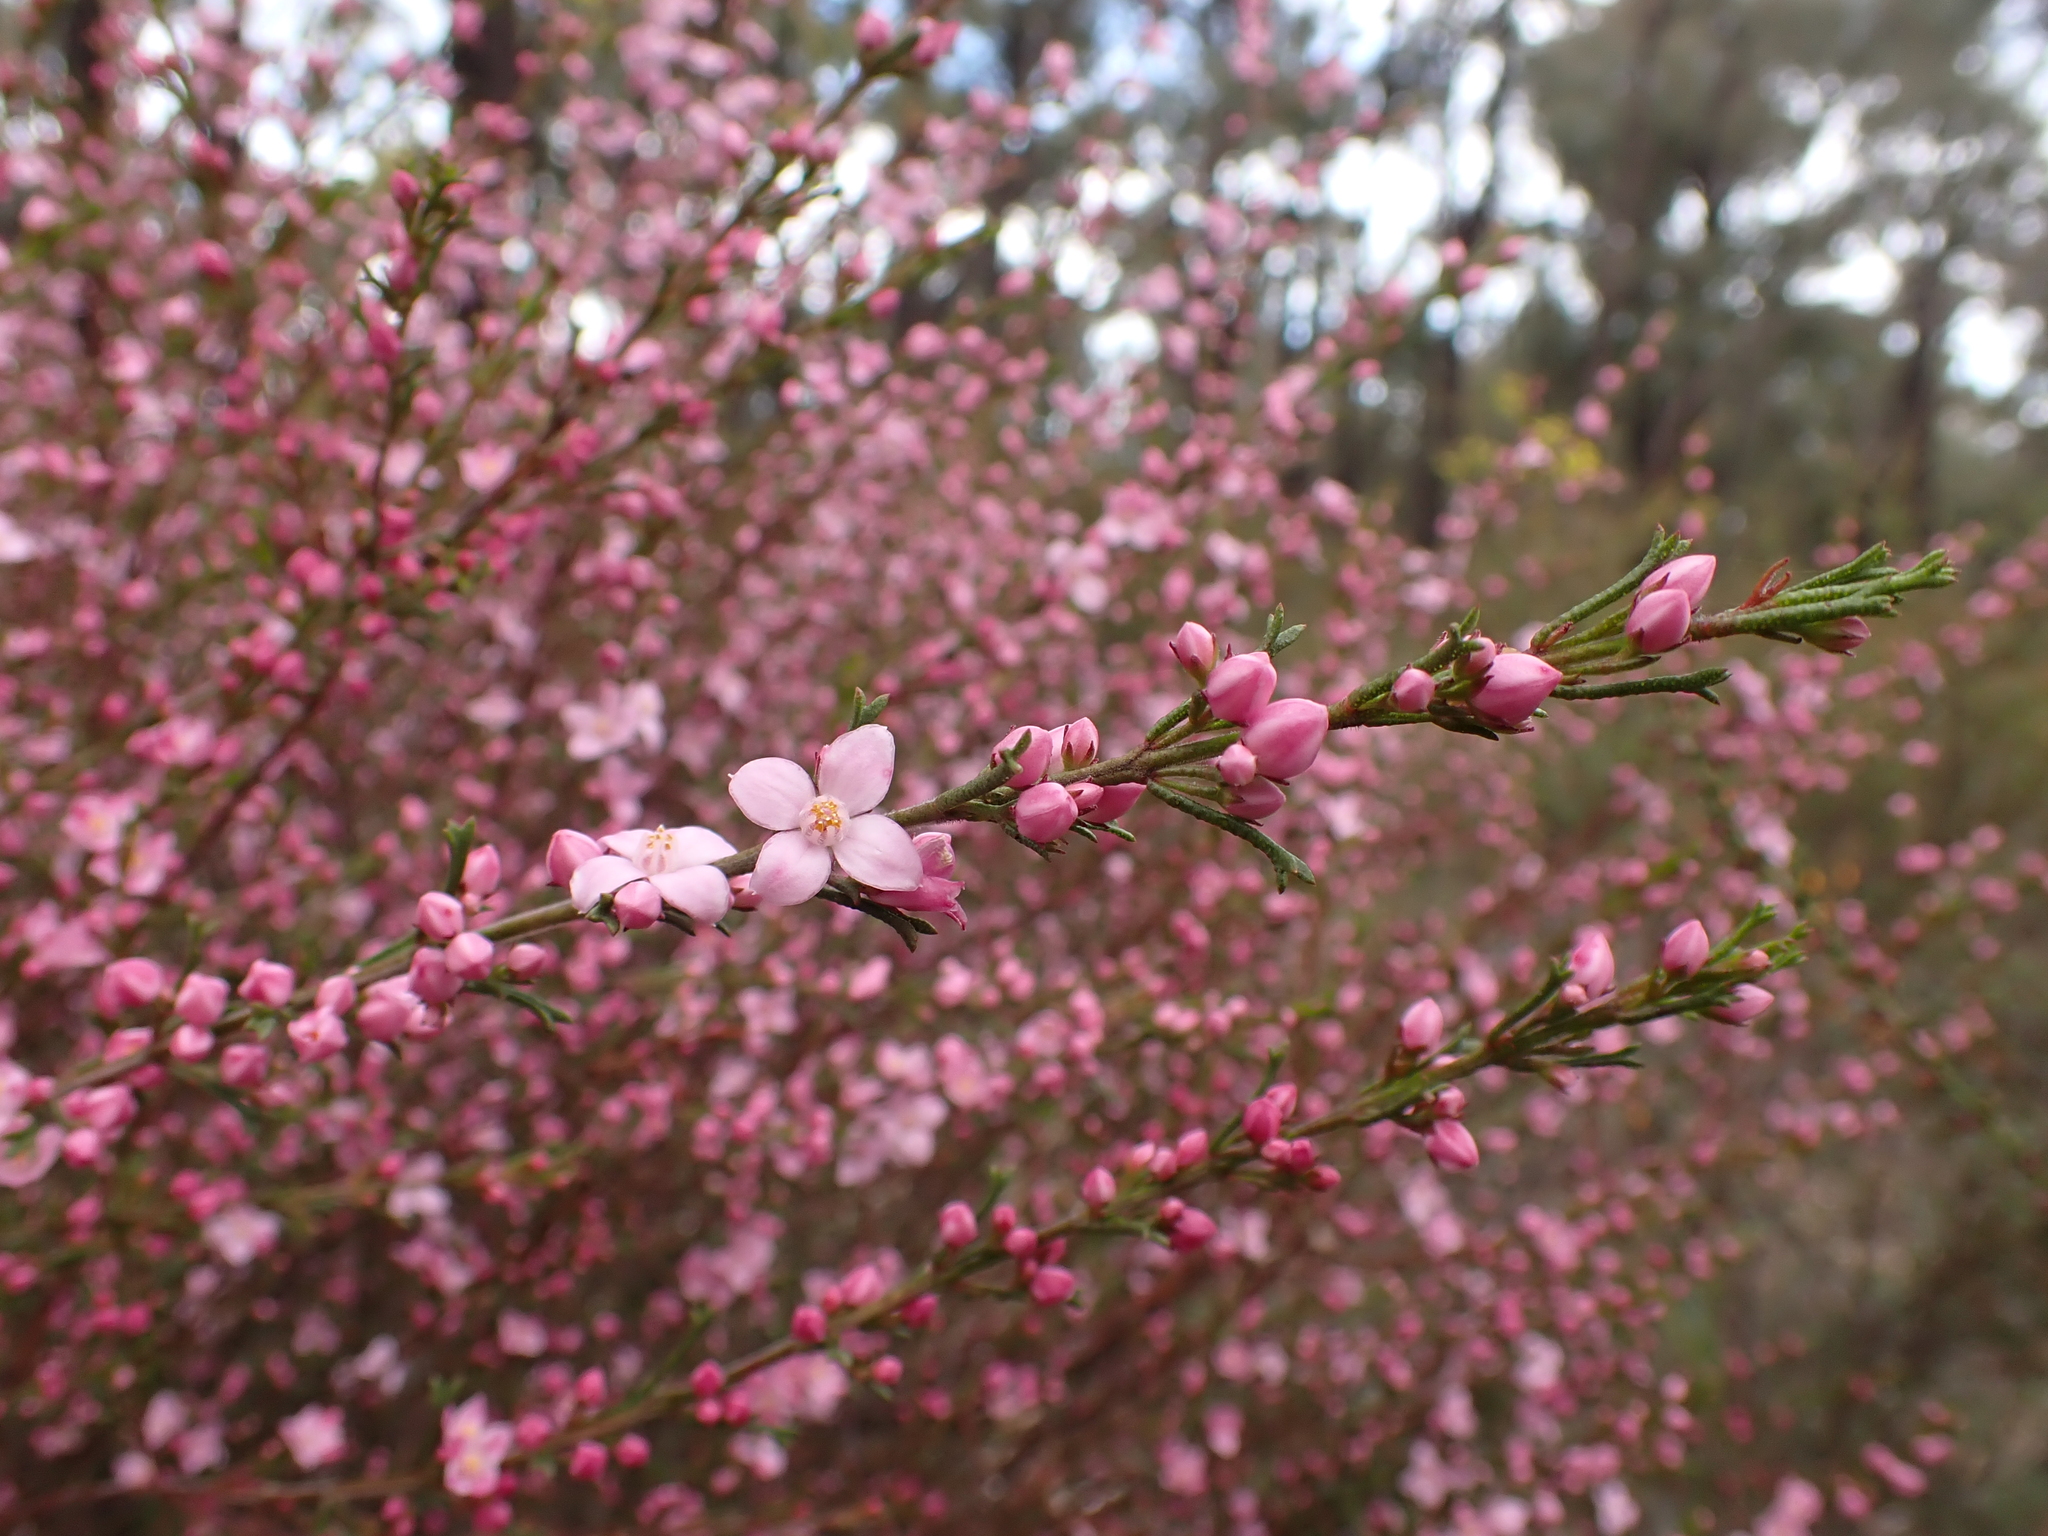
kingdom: Plantae
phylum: Tracheophyta
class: Magnoliopsida
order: Sapindales
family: Rutaceae
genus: Cyanothamnus
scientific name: Cyanothamnus anemonifolius
